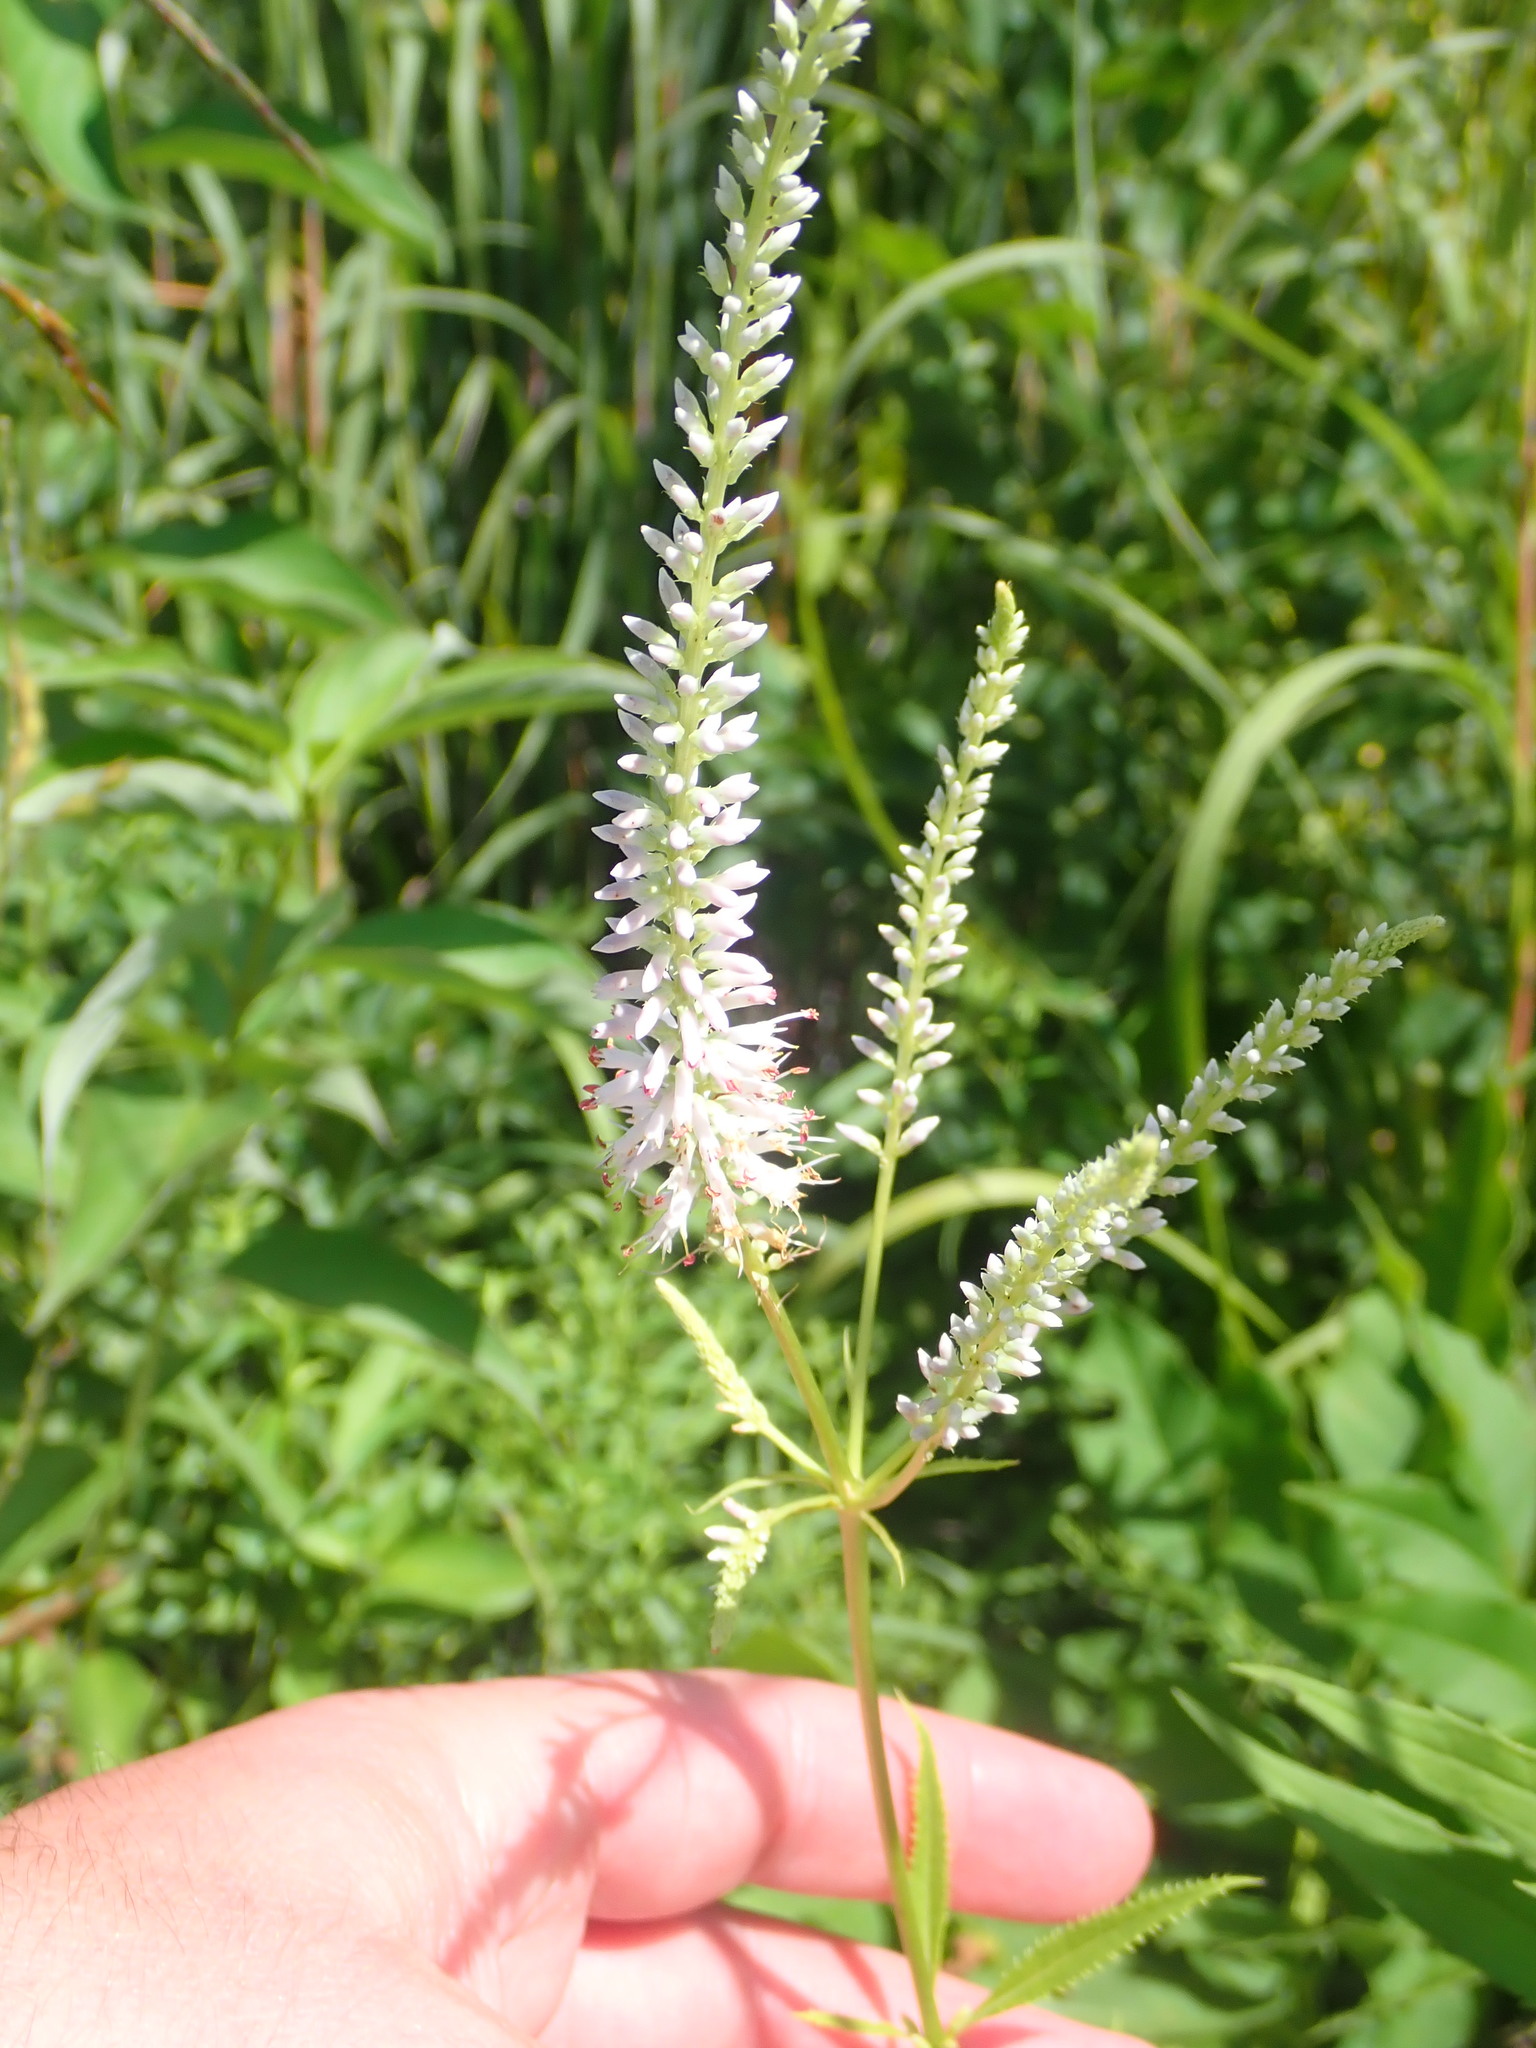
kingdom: Plantae
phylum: Tracheophyta
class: Magnoliopsida
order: Lamiales
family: Plantaginaceae
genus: Veronicastrum
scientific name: Veronicastrum virginicum
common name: Blackroot
